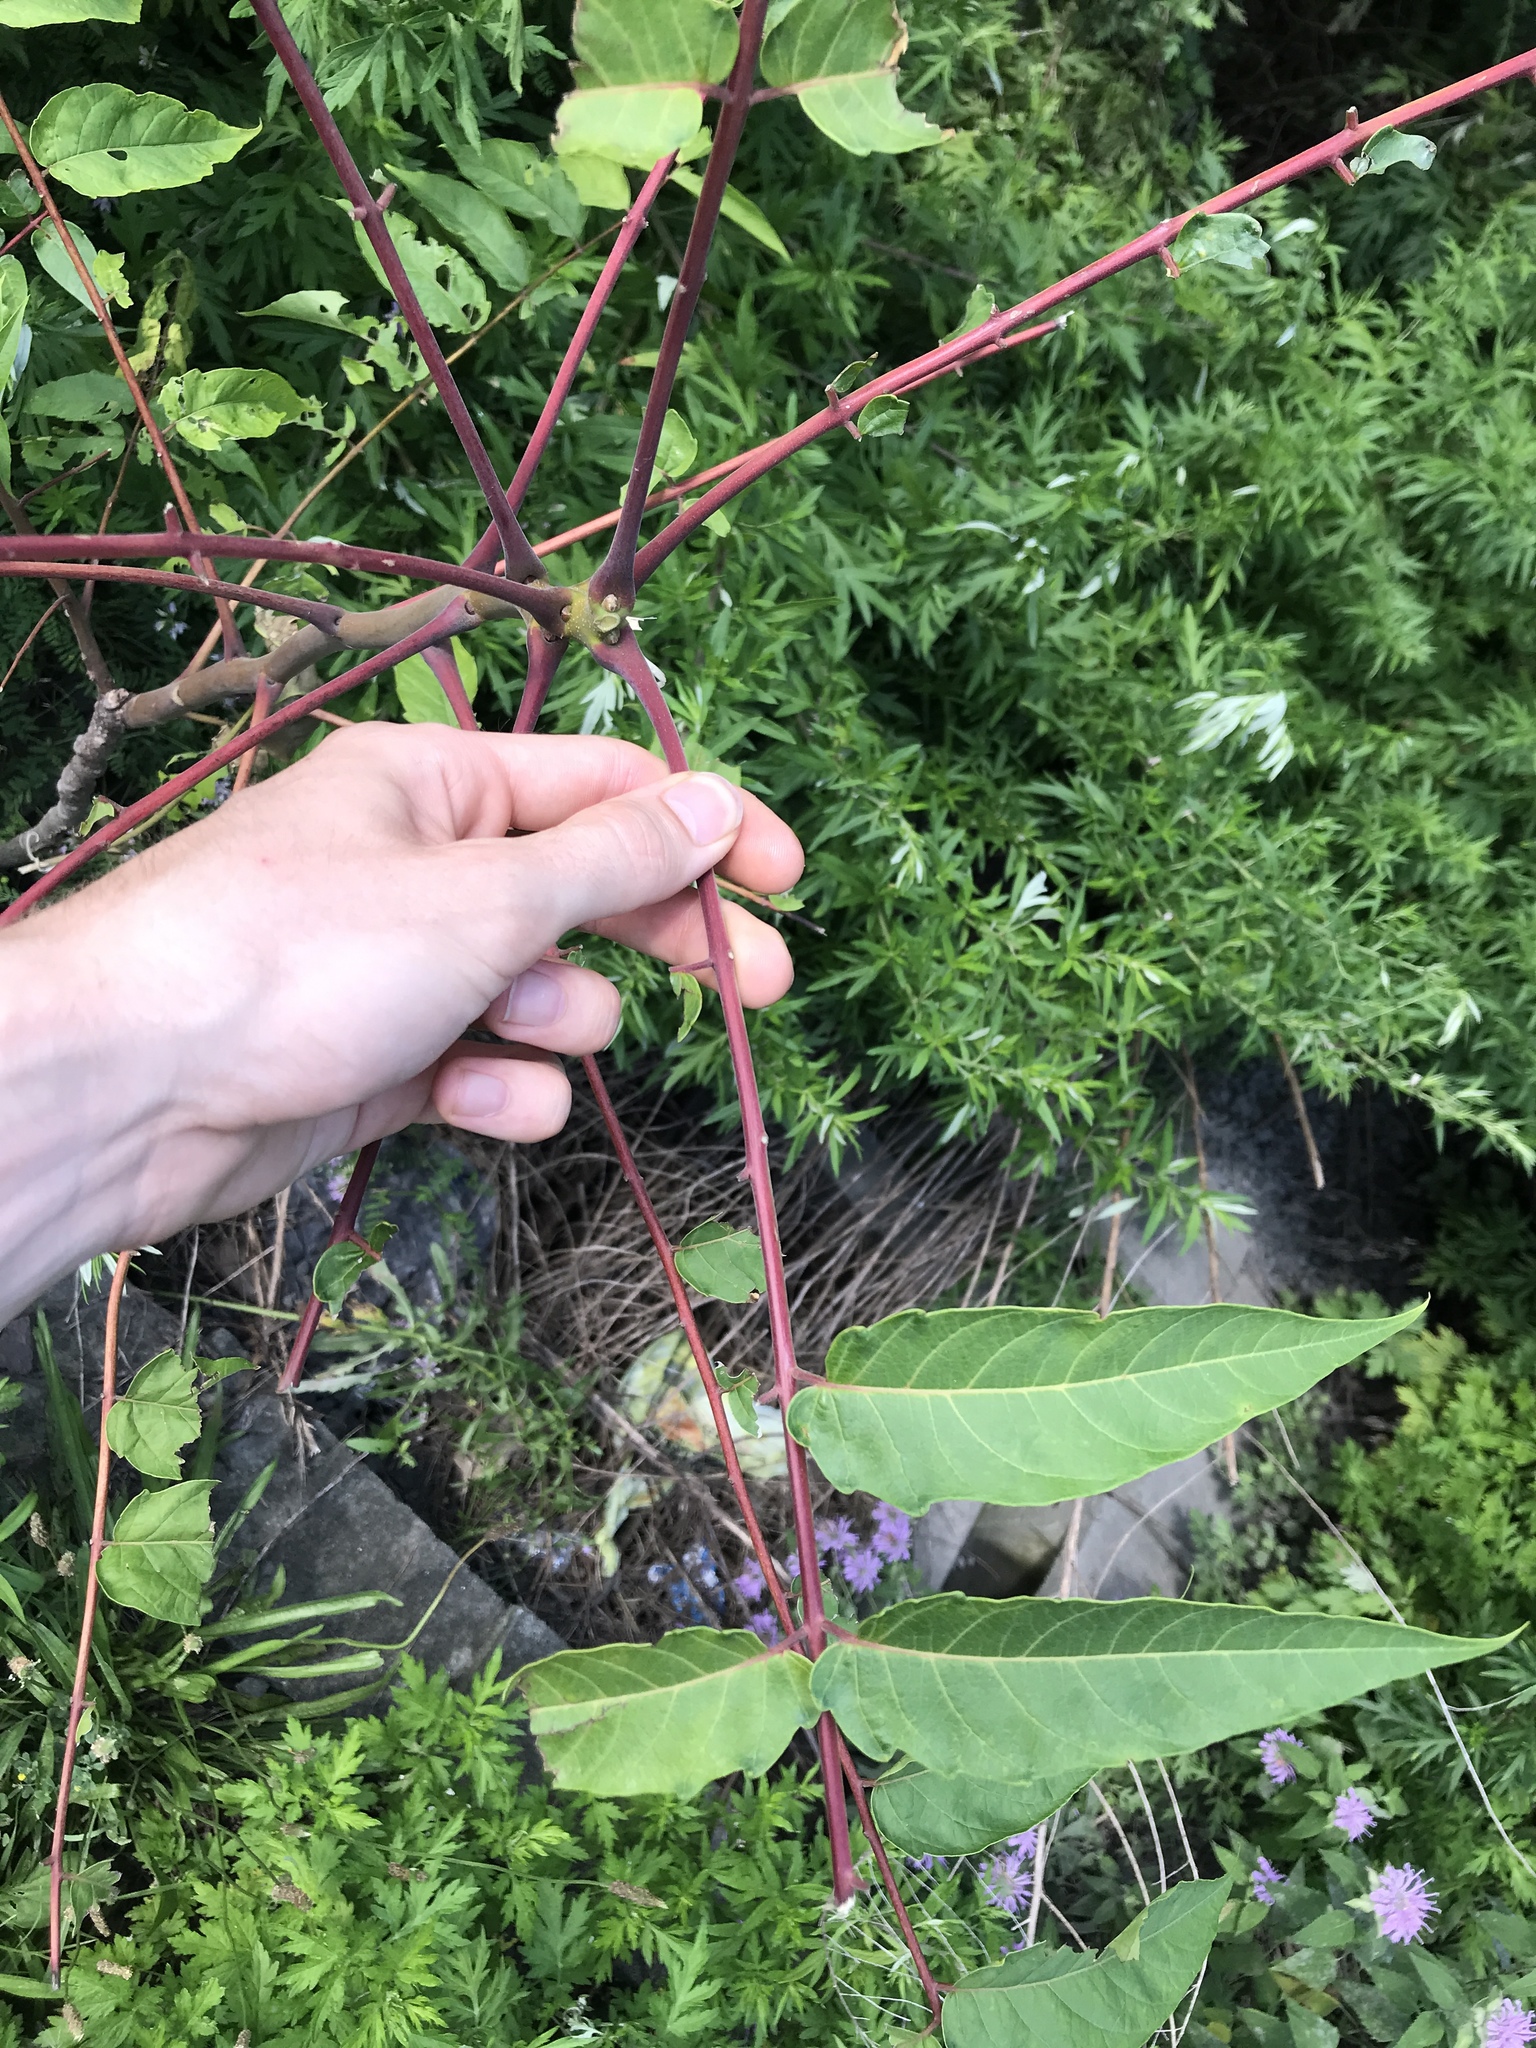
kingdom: Plantae
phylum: Tracheophyta
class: Magnoliopsida
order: Sapindales
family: Simaroubaceae
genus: Ailanthus
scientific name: Ailanthus altissima
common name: Tree-of-heaven
